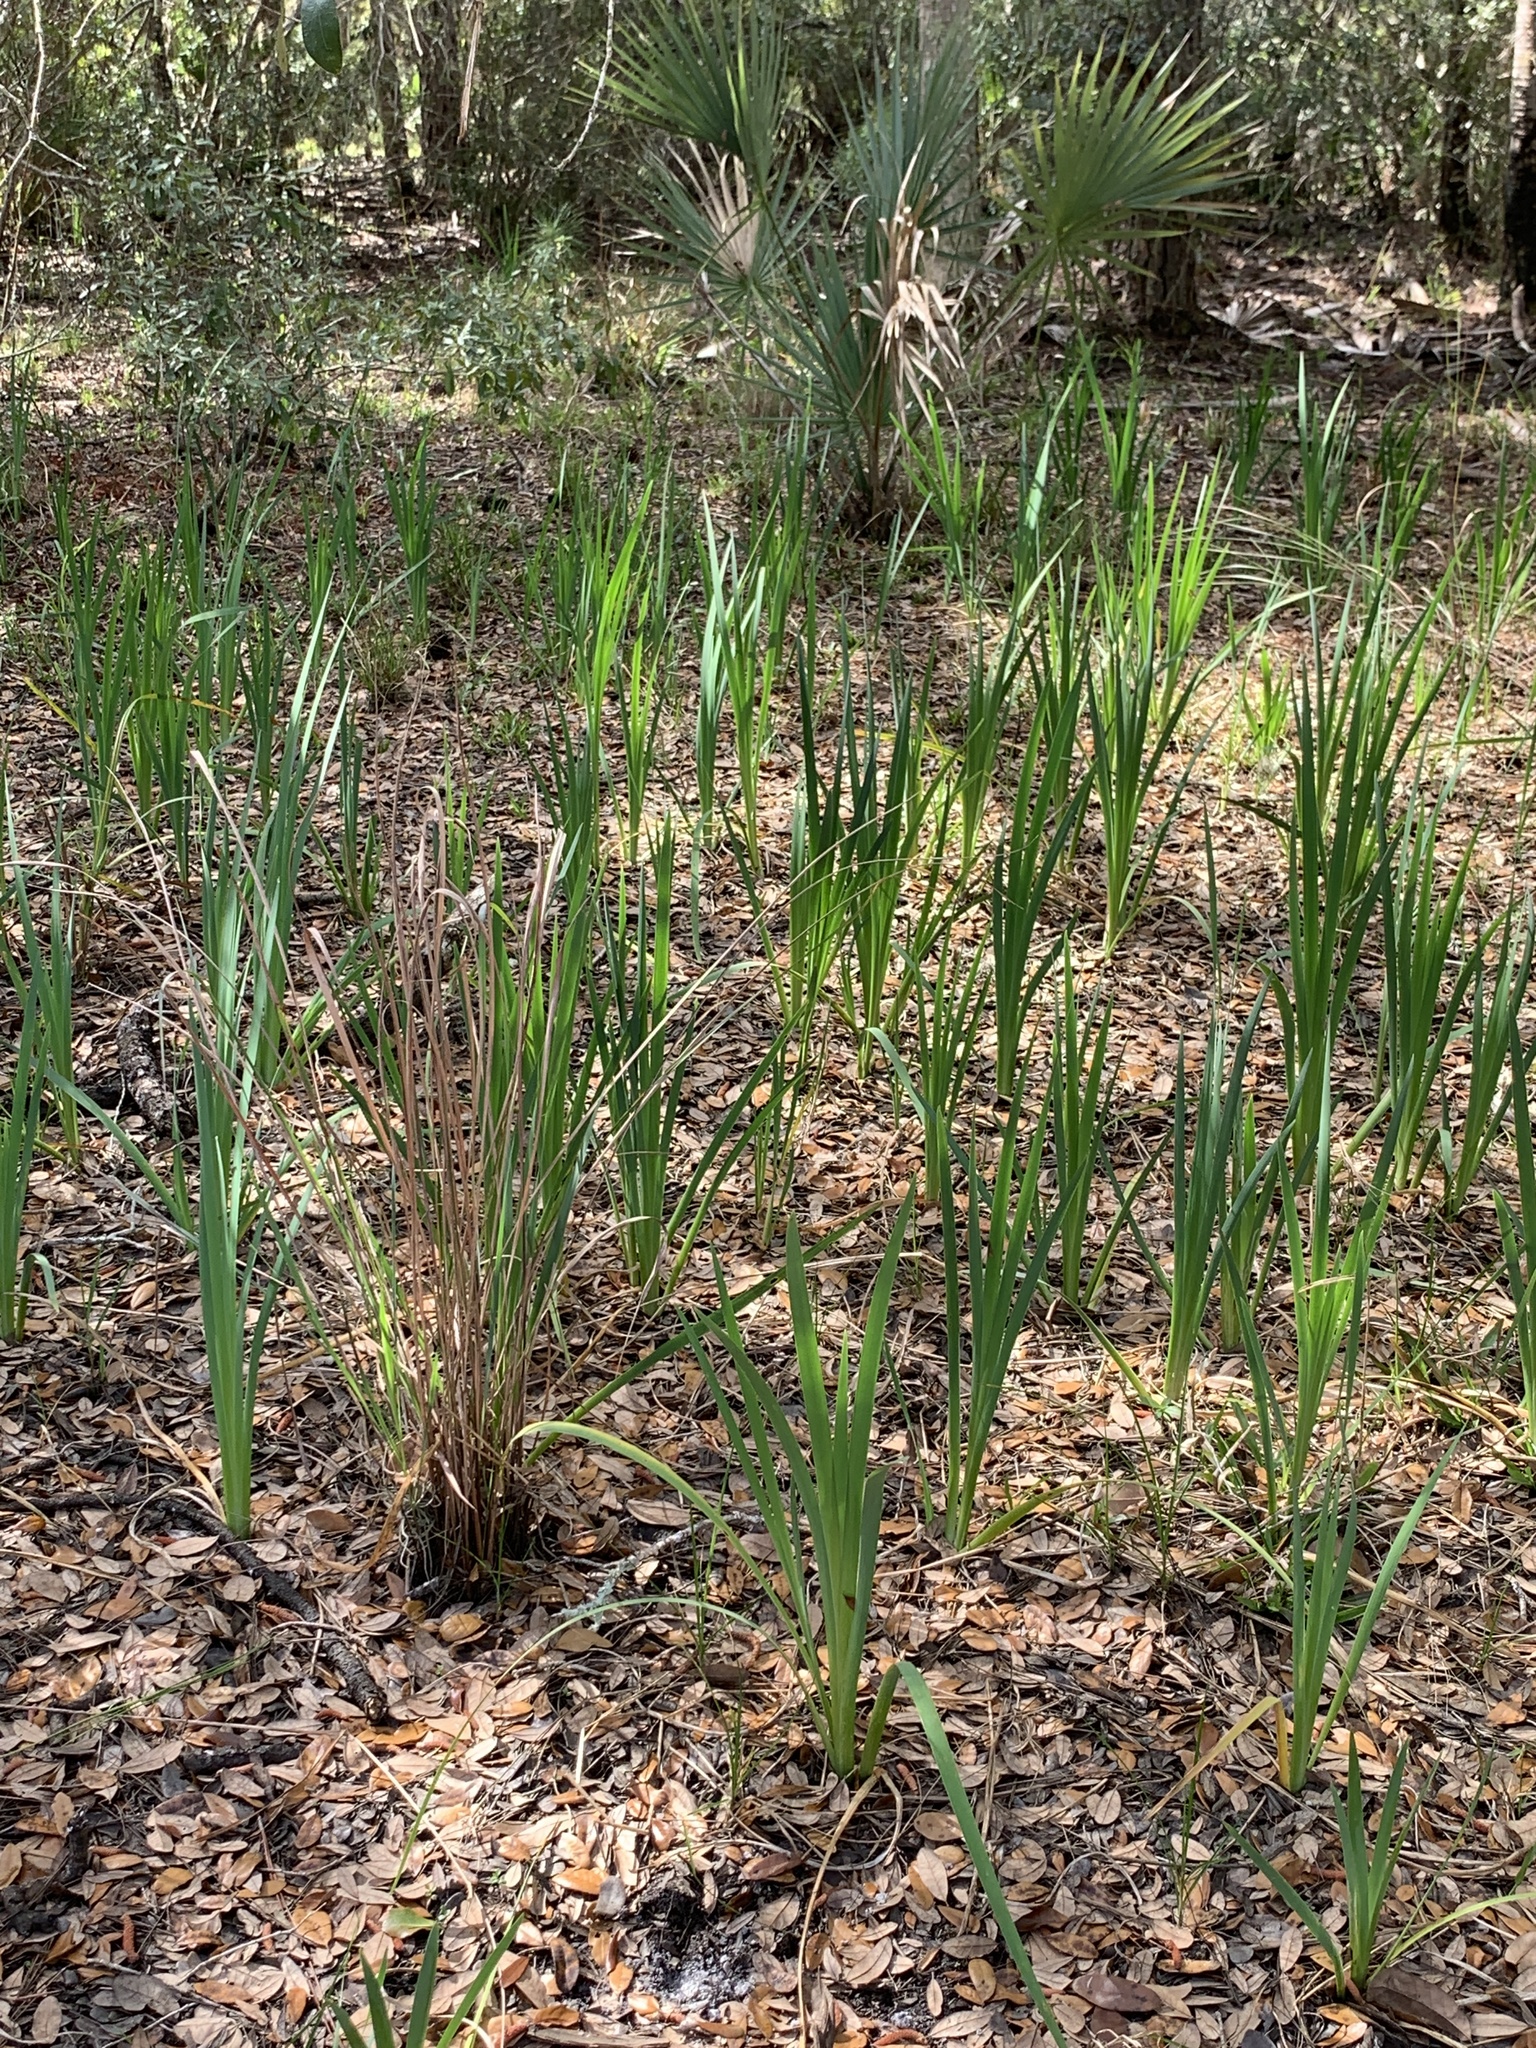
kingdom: Plantae
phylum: Tracheophyta
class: Liliopsida
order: Asparagales
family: Iridaceae
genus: Iris
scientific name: Iris savannarum
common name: Prairie iris
